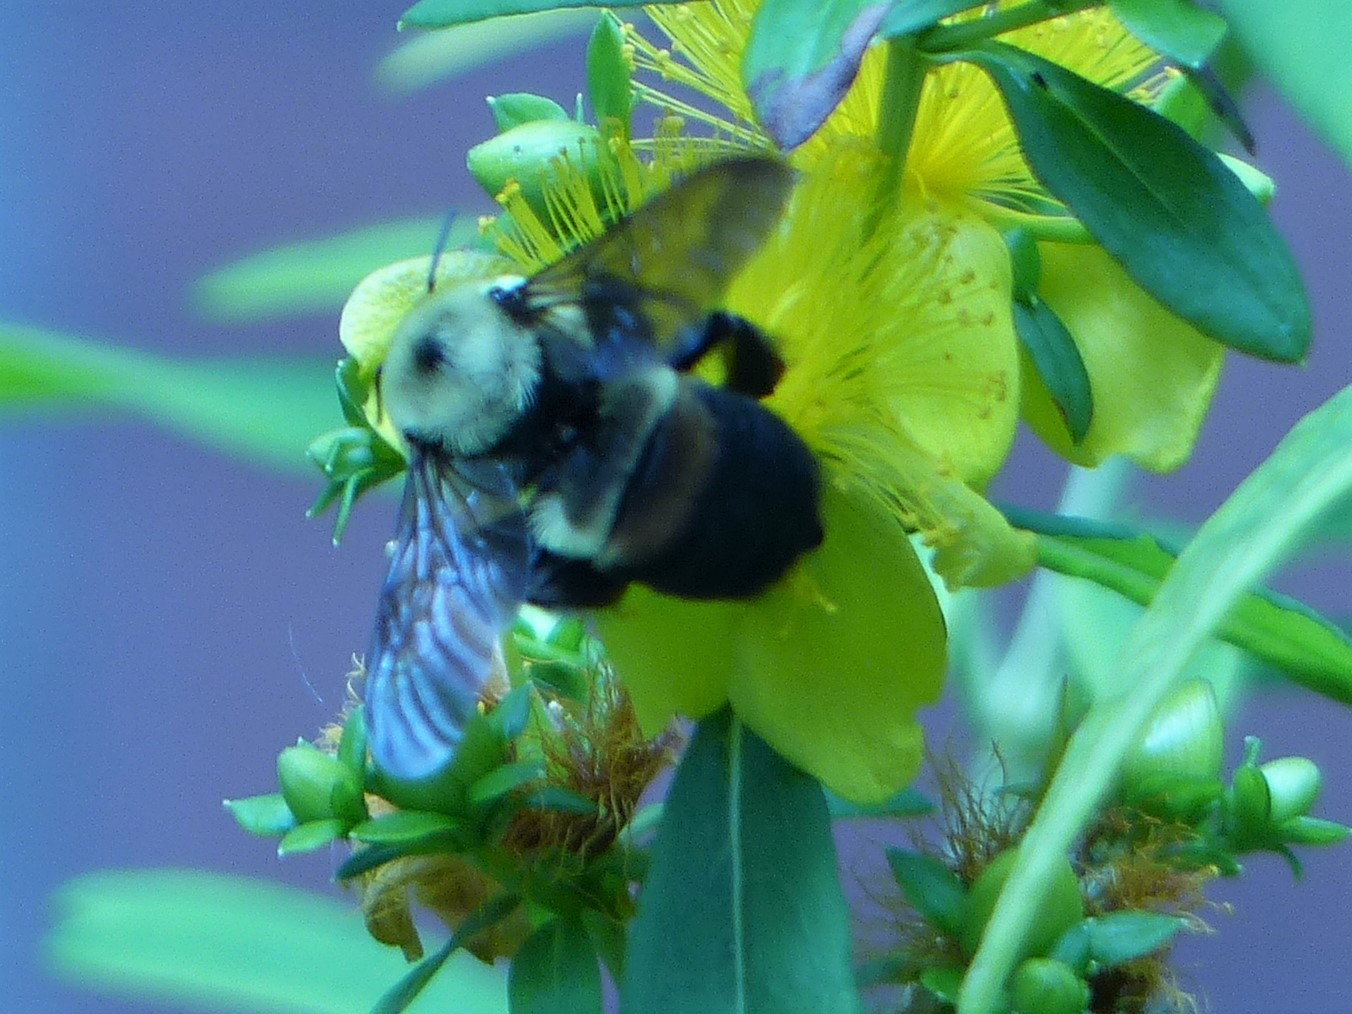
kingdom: Animalia
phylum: Arthropoda
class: Insecta
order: Hymenoptera
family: Apidae
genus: Bombus
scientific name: Bombus griseocollis
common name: Brown-belted bumble bee
